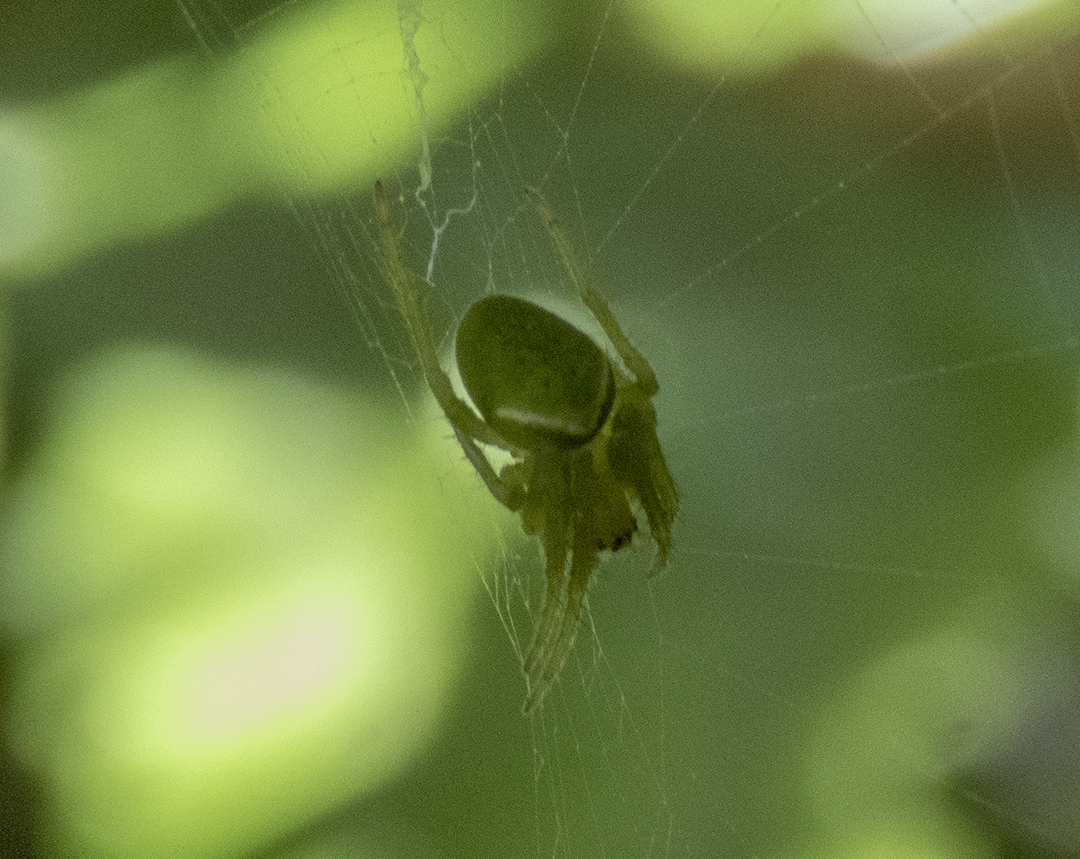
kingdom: Animalia
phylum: Arthropoda
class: Arachnida
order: Araneae
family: Araneidae
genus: Colaranea
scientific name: Colaranea viriditas
